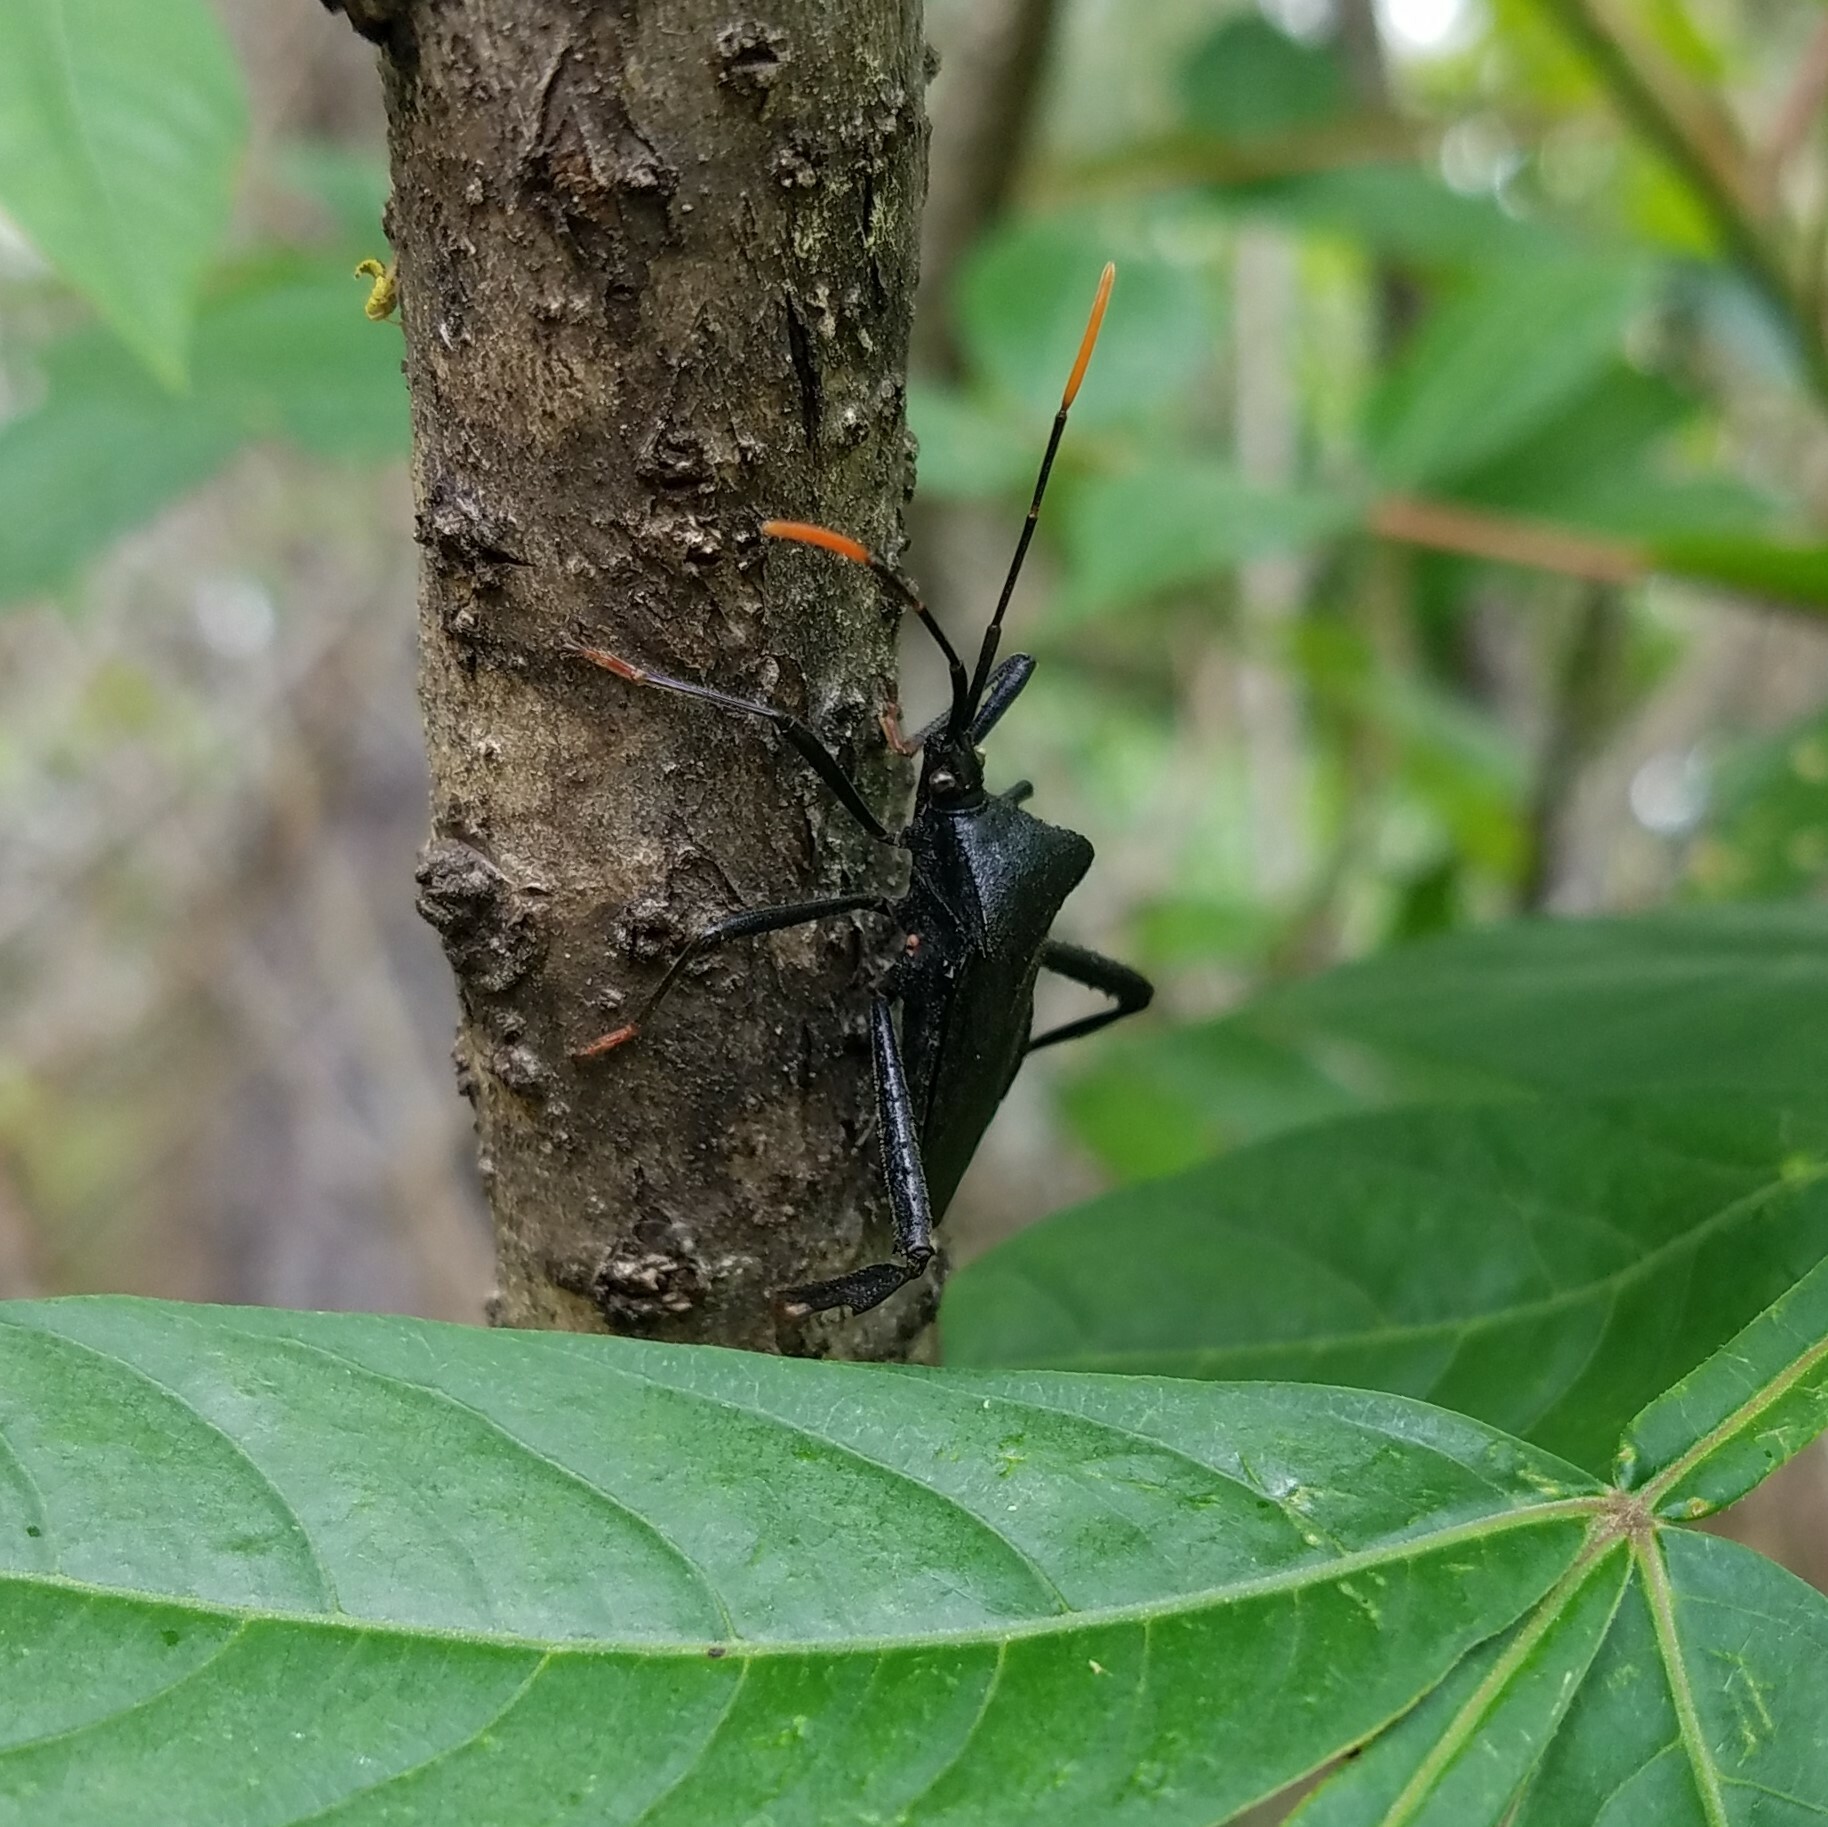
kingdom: Animalia
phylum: Arthropoda
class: Insecta
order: Hemiptera
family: Coreidae
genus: Acanthocephala
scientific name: Acanthocephala terminalis
